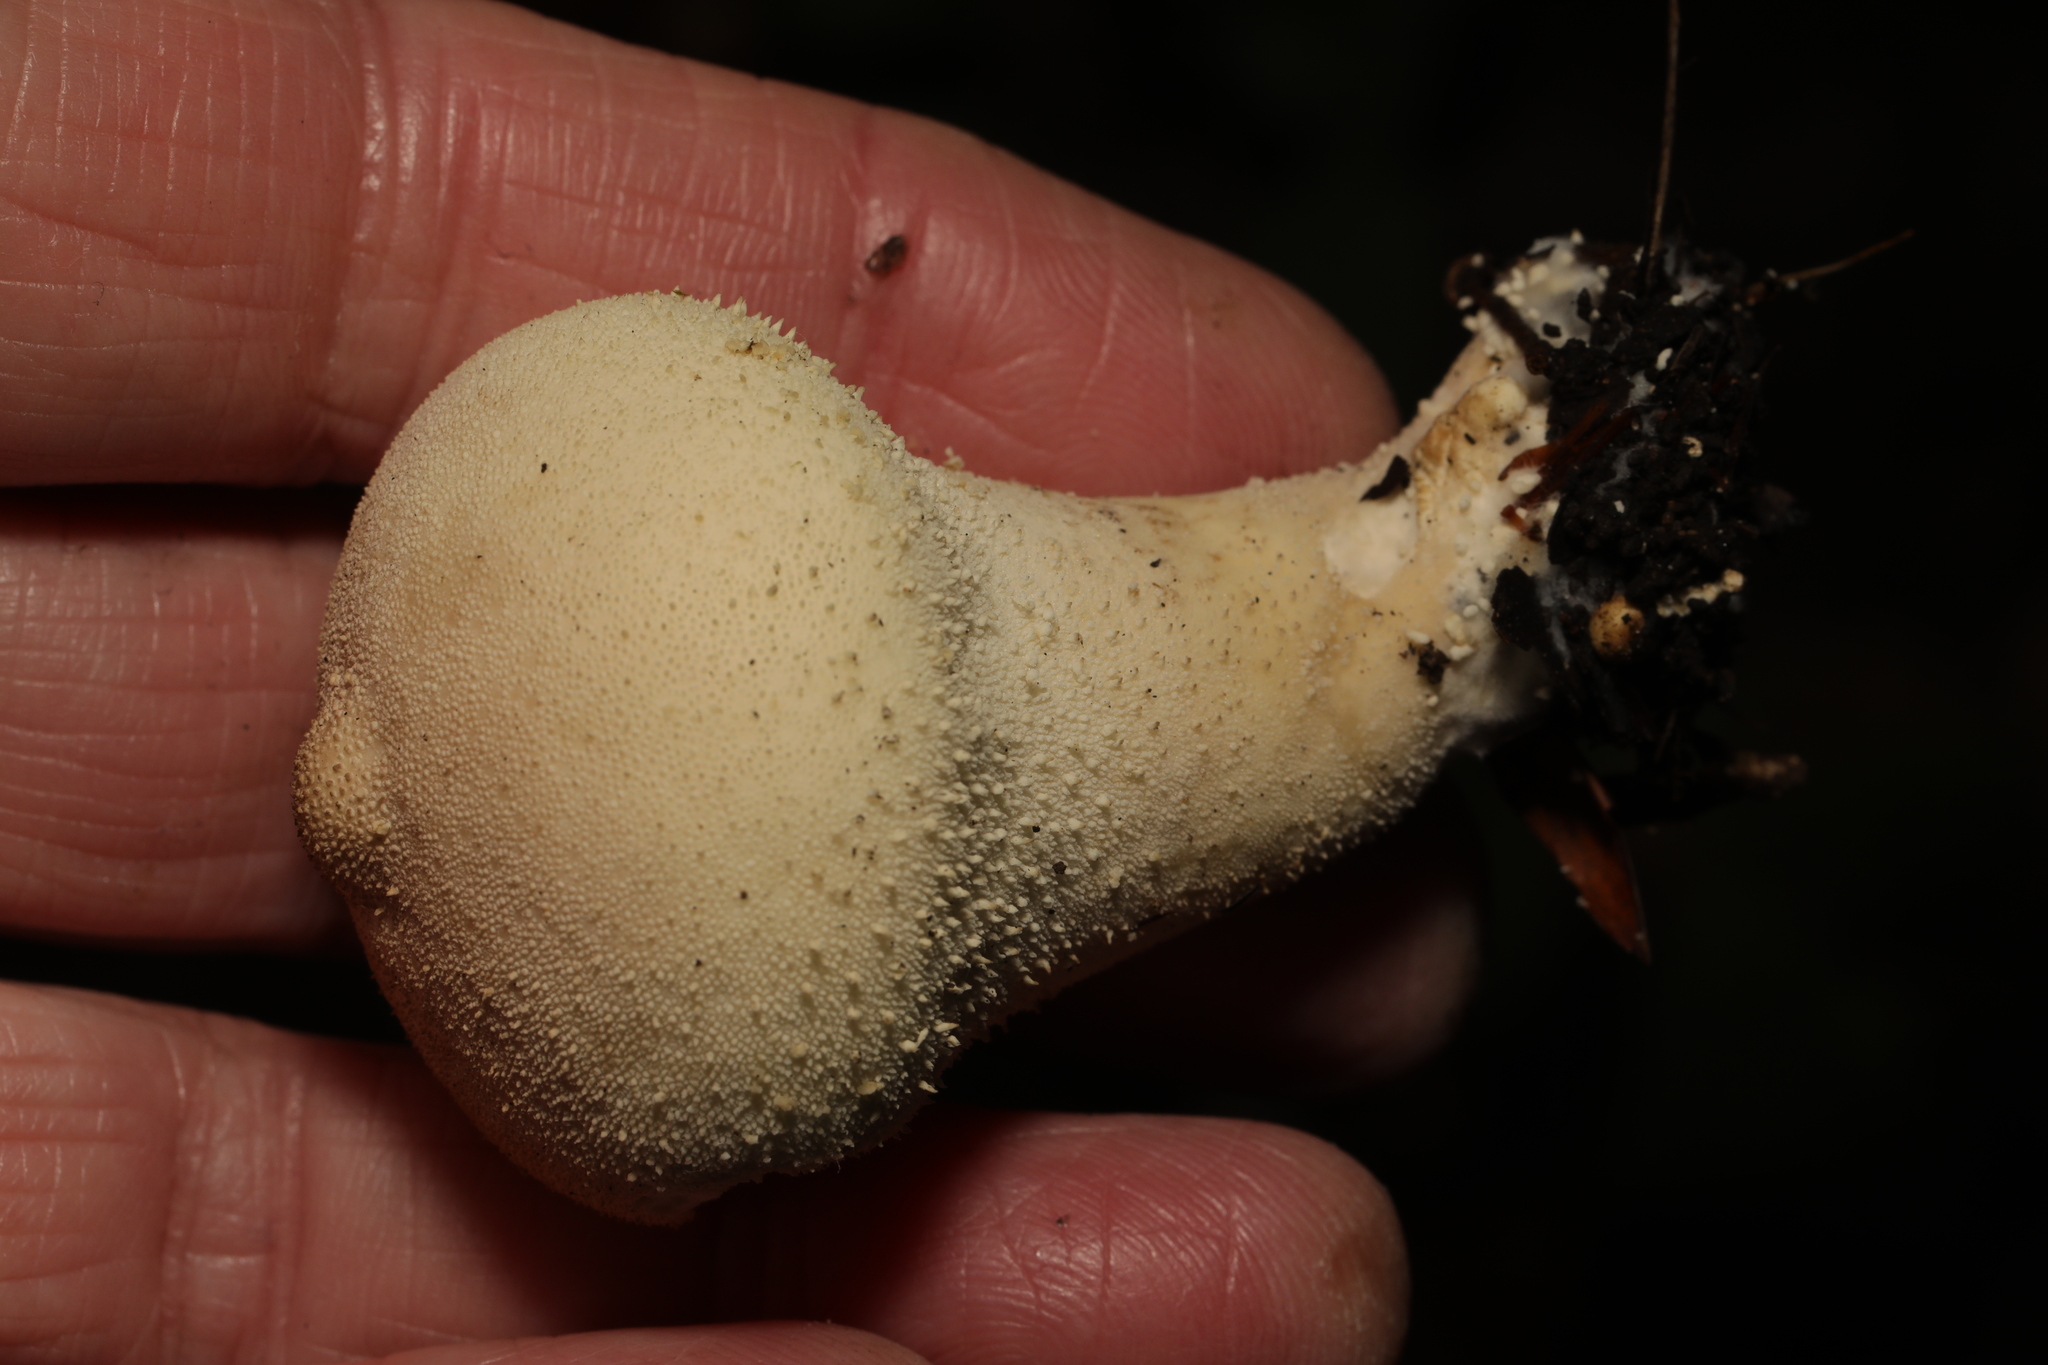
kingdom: Fungi
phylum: Basidiomycota
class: Agaricomycetes
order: Agaricales
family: Lycoperdaceae
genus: Lycoperdon
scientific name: Lycoperdon perlatum
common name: Common puffball
